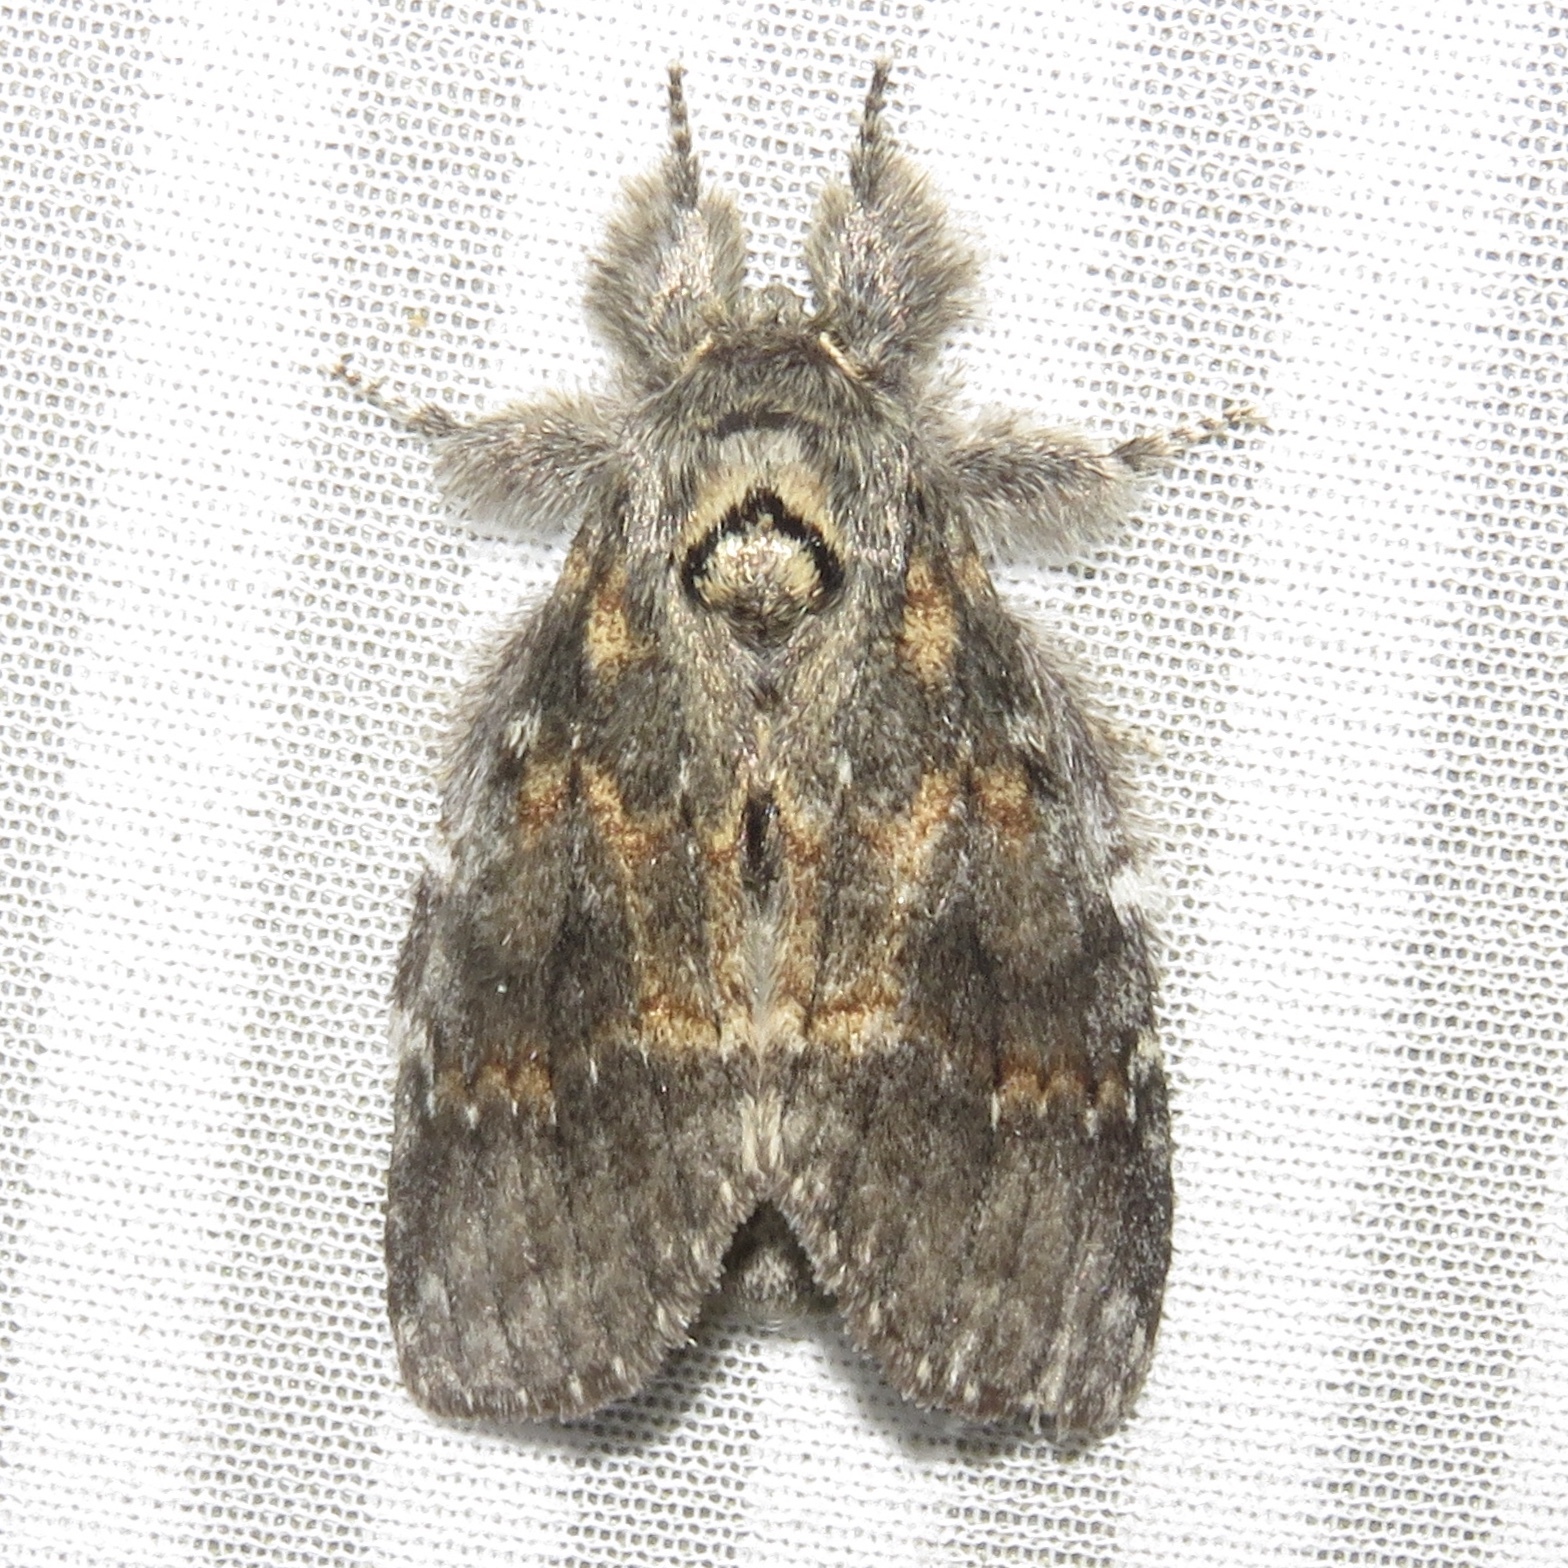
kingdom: Animalia
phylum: Arthropoda
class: Insecta
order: Lepidoptera
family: Notodontidae
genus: Peridea
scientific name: Peridea angulosa
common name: Angulose prominent
